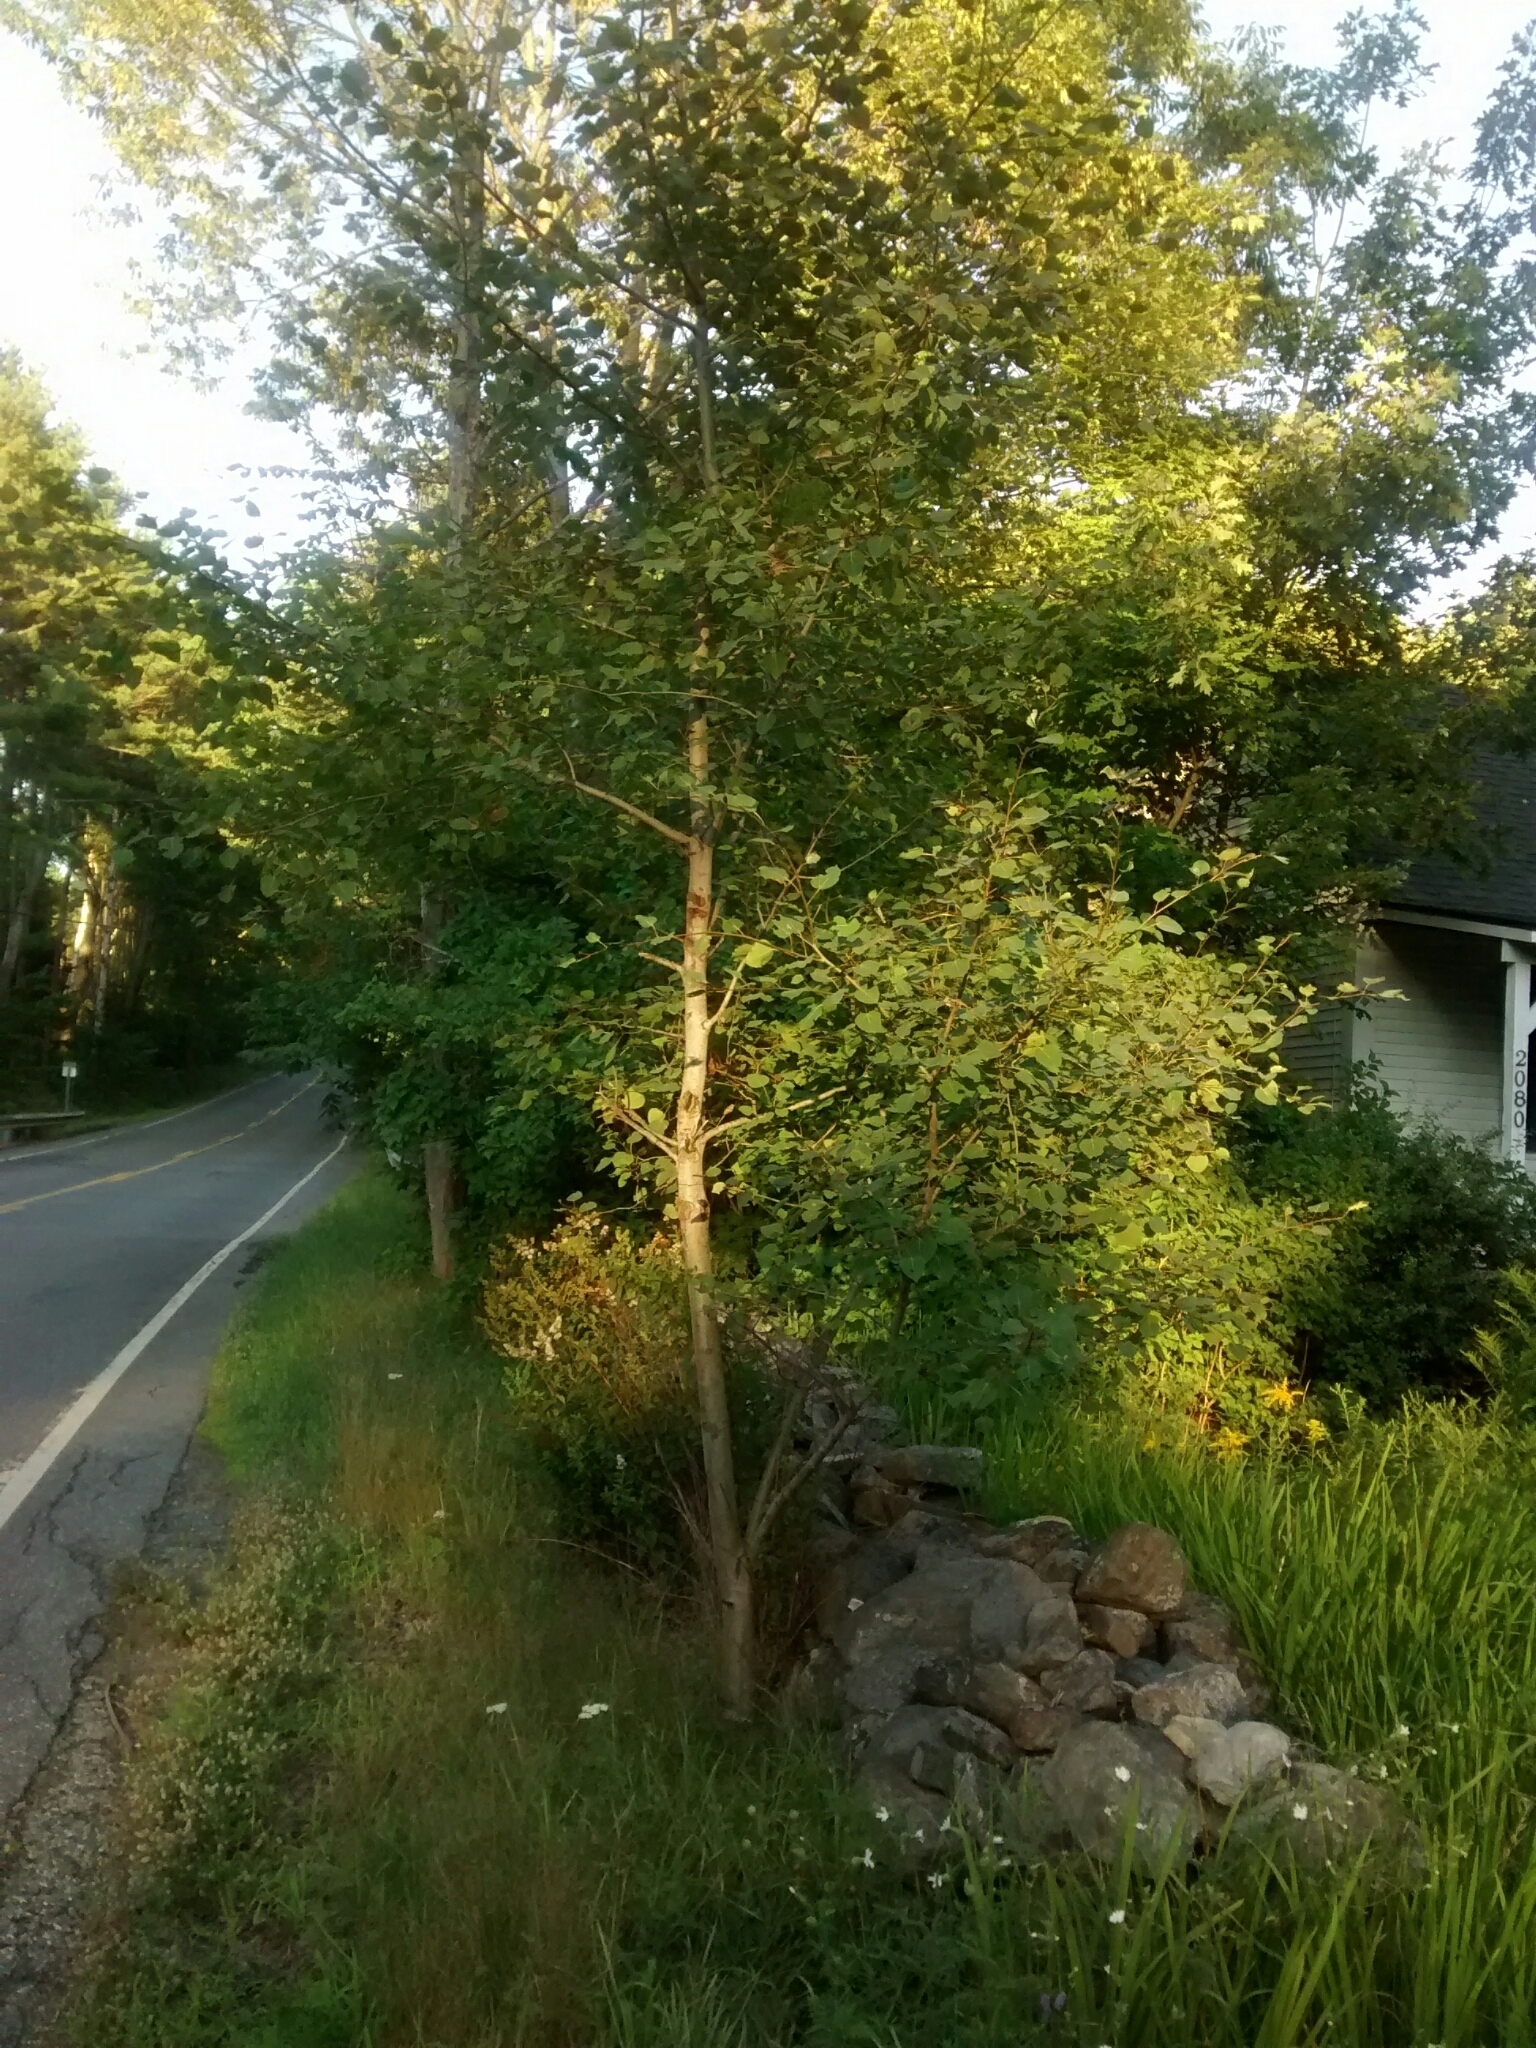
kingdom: Plantae
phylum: Tracheophyta
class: Magnoliopsida
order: Malpighiales
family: Salicaceae
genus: Populus
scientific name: Populus tremuloides
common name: Quaking aspen
